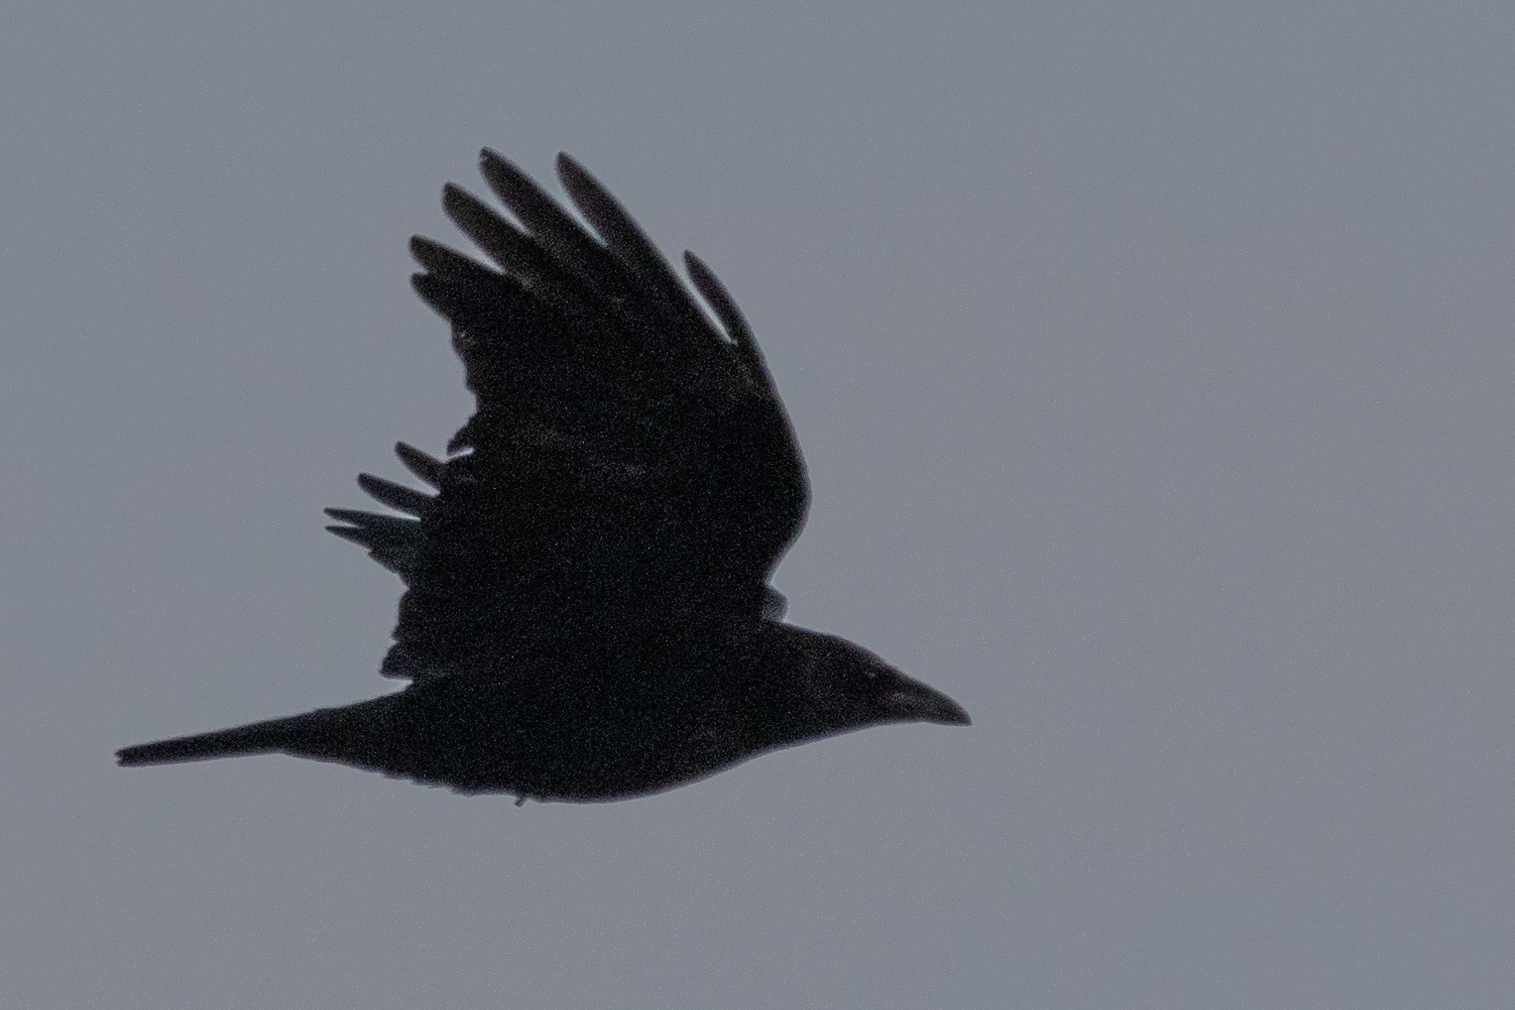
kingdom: Animalia
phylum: Chordata
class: Aves
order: Passeriformes
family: Corvidae
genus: Corvus
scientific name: Corvus corone
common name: Carrion crow
